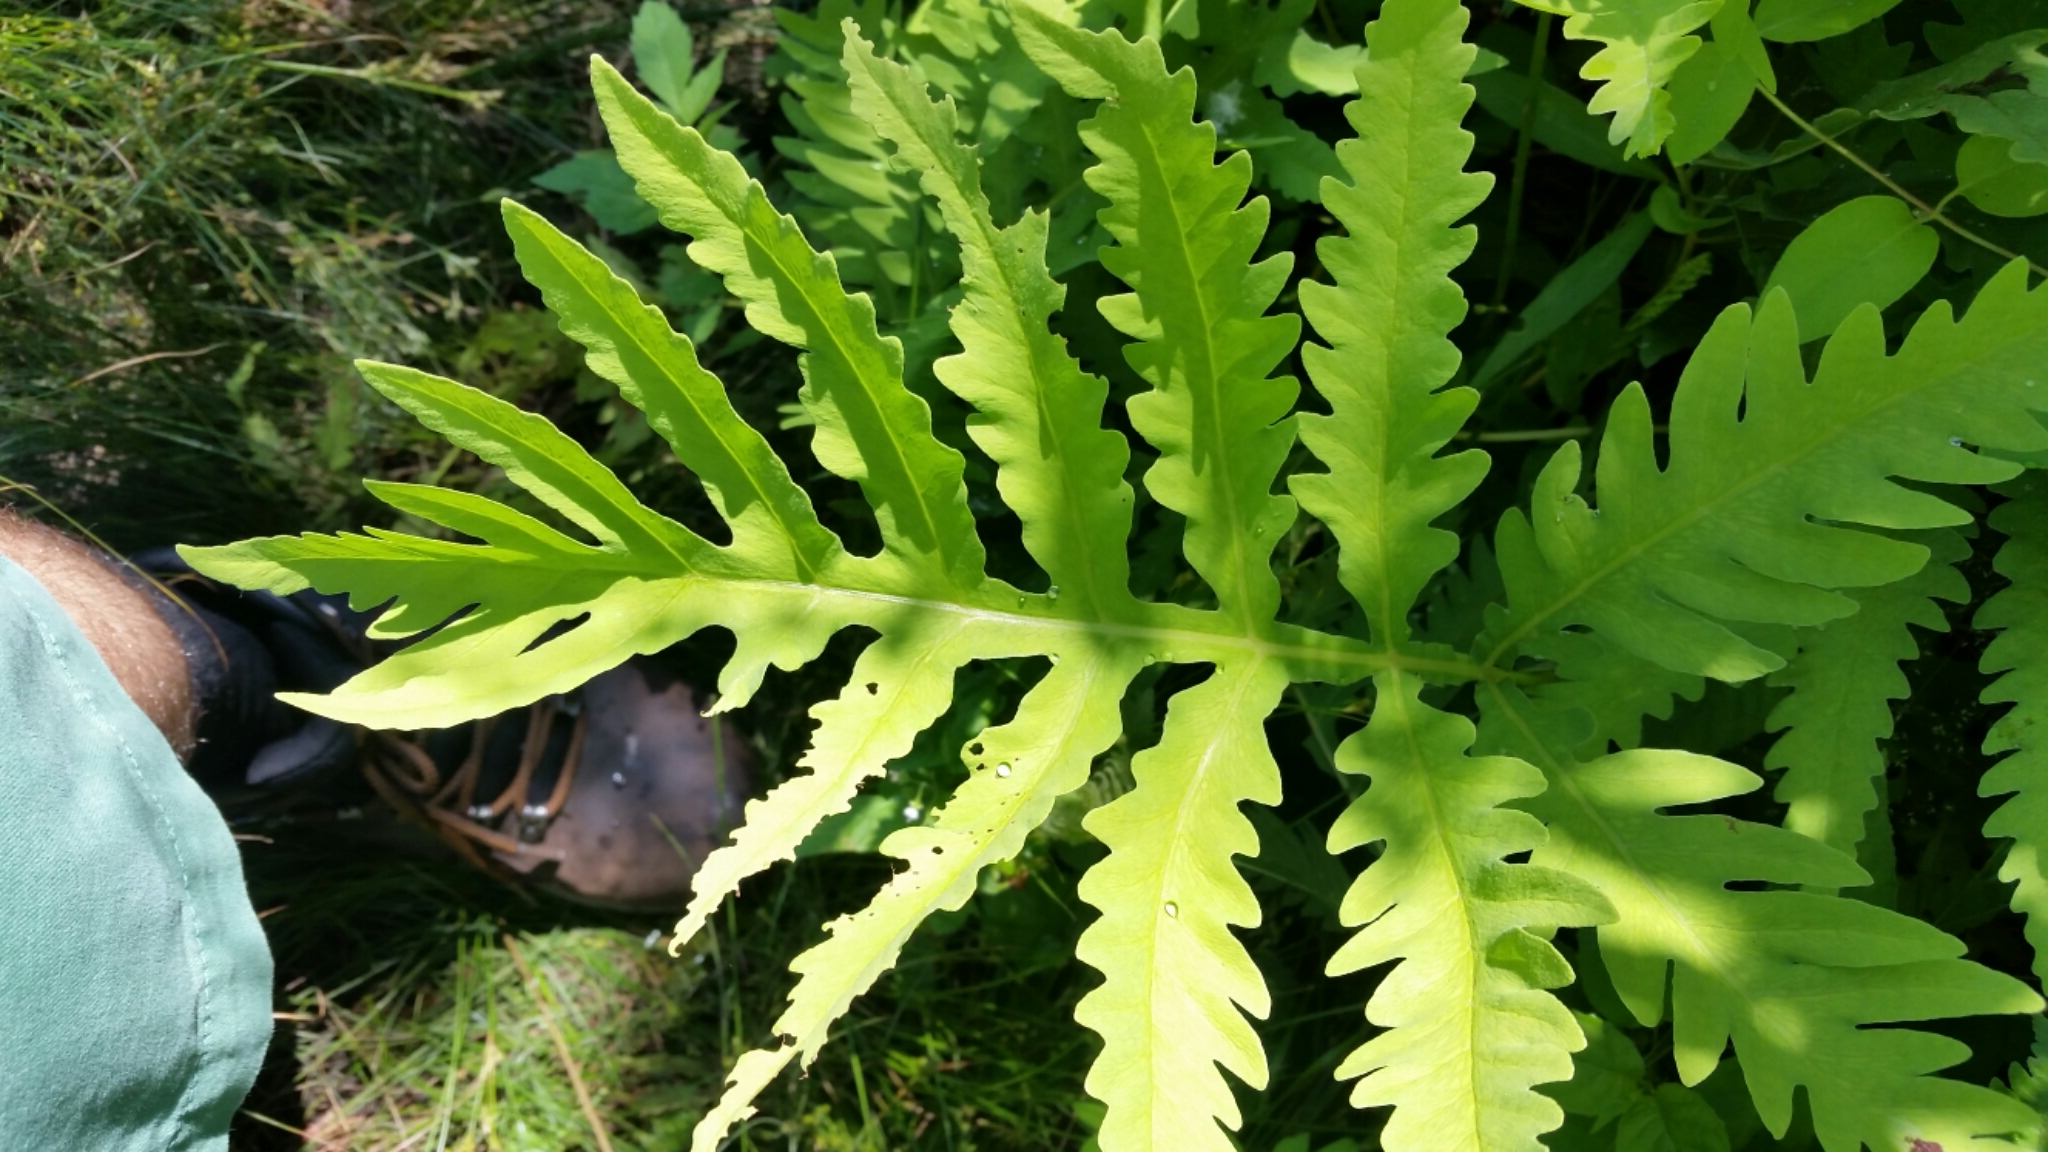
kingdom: Plantae
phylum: Tracheophyta
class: Polypodiopsida
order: Polypodiales
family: Onocleaceae
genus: Onoclea
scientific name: Onoclea sensibilis
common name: Sensitive fern
